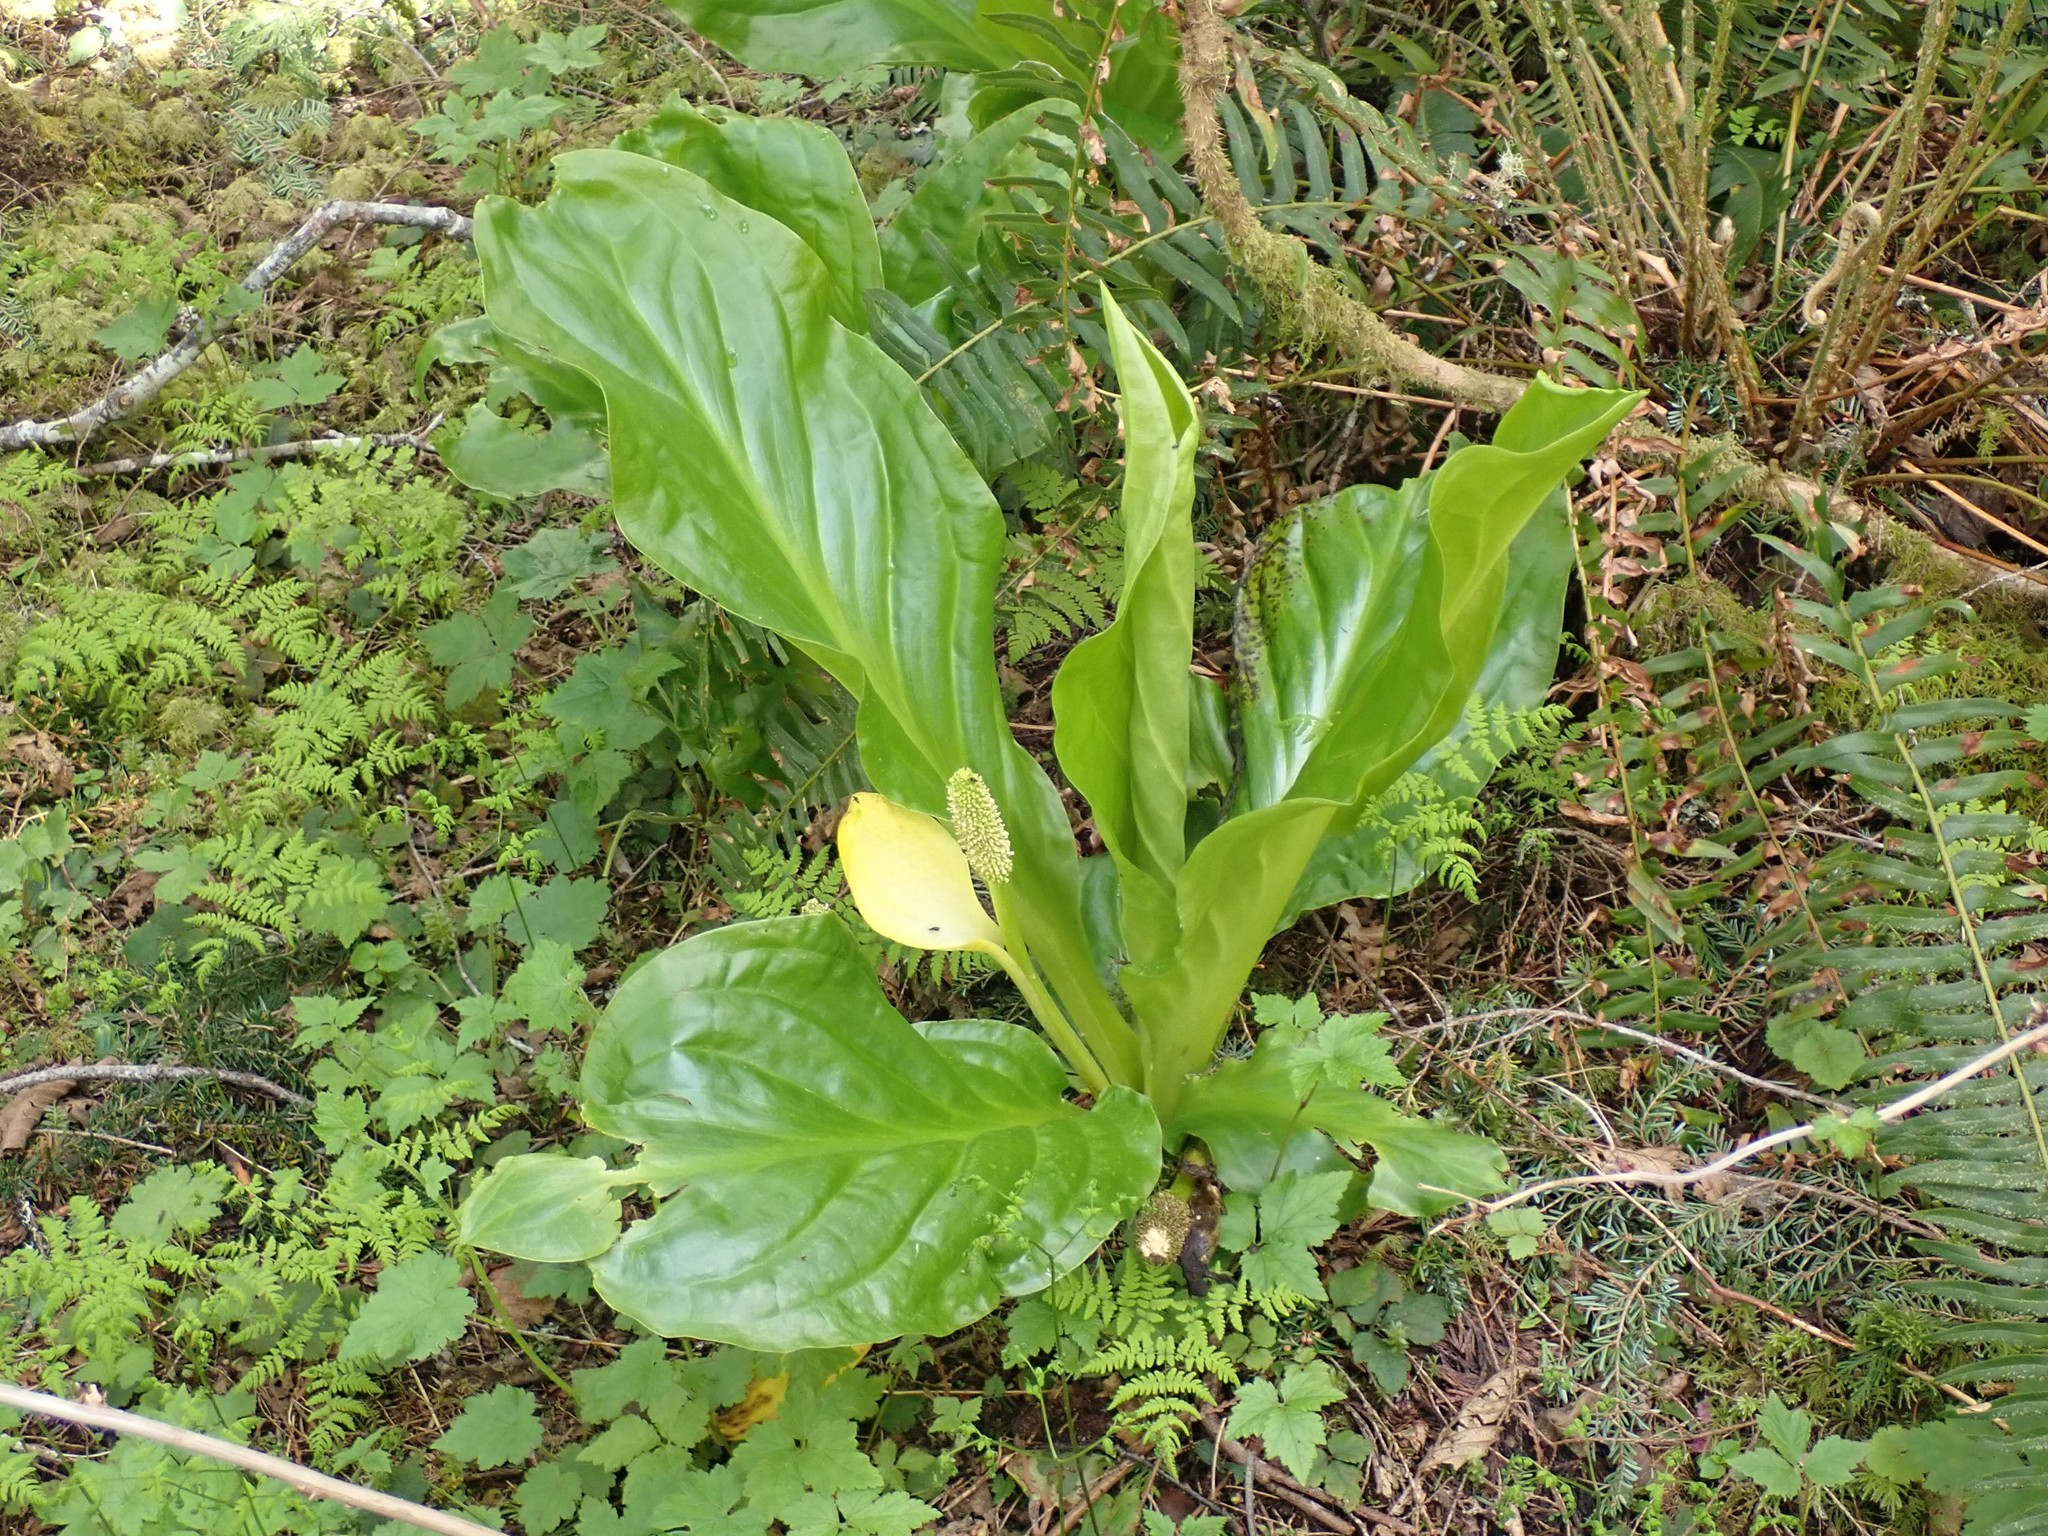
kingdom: Plantae
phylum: Tracheophyta
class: Liliopsida
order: Alismatales
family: Araceae
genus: Lysichiton
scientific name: Lysichiton americanus
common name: American skunk cabbage
